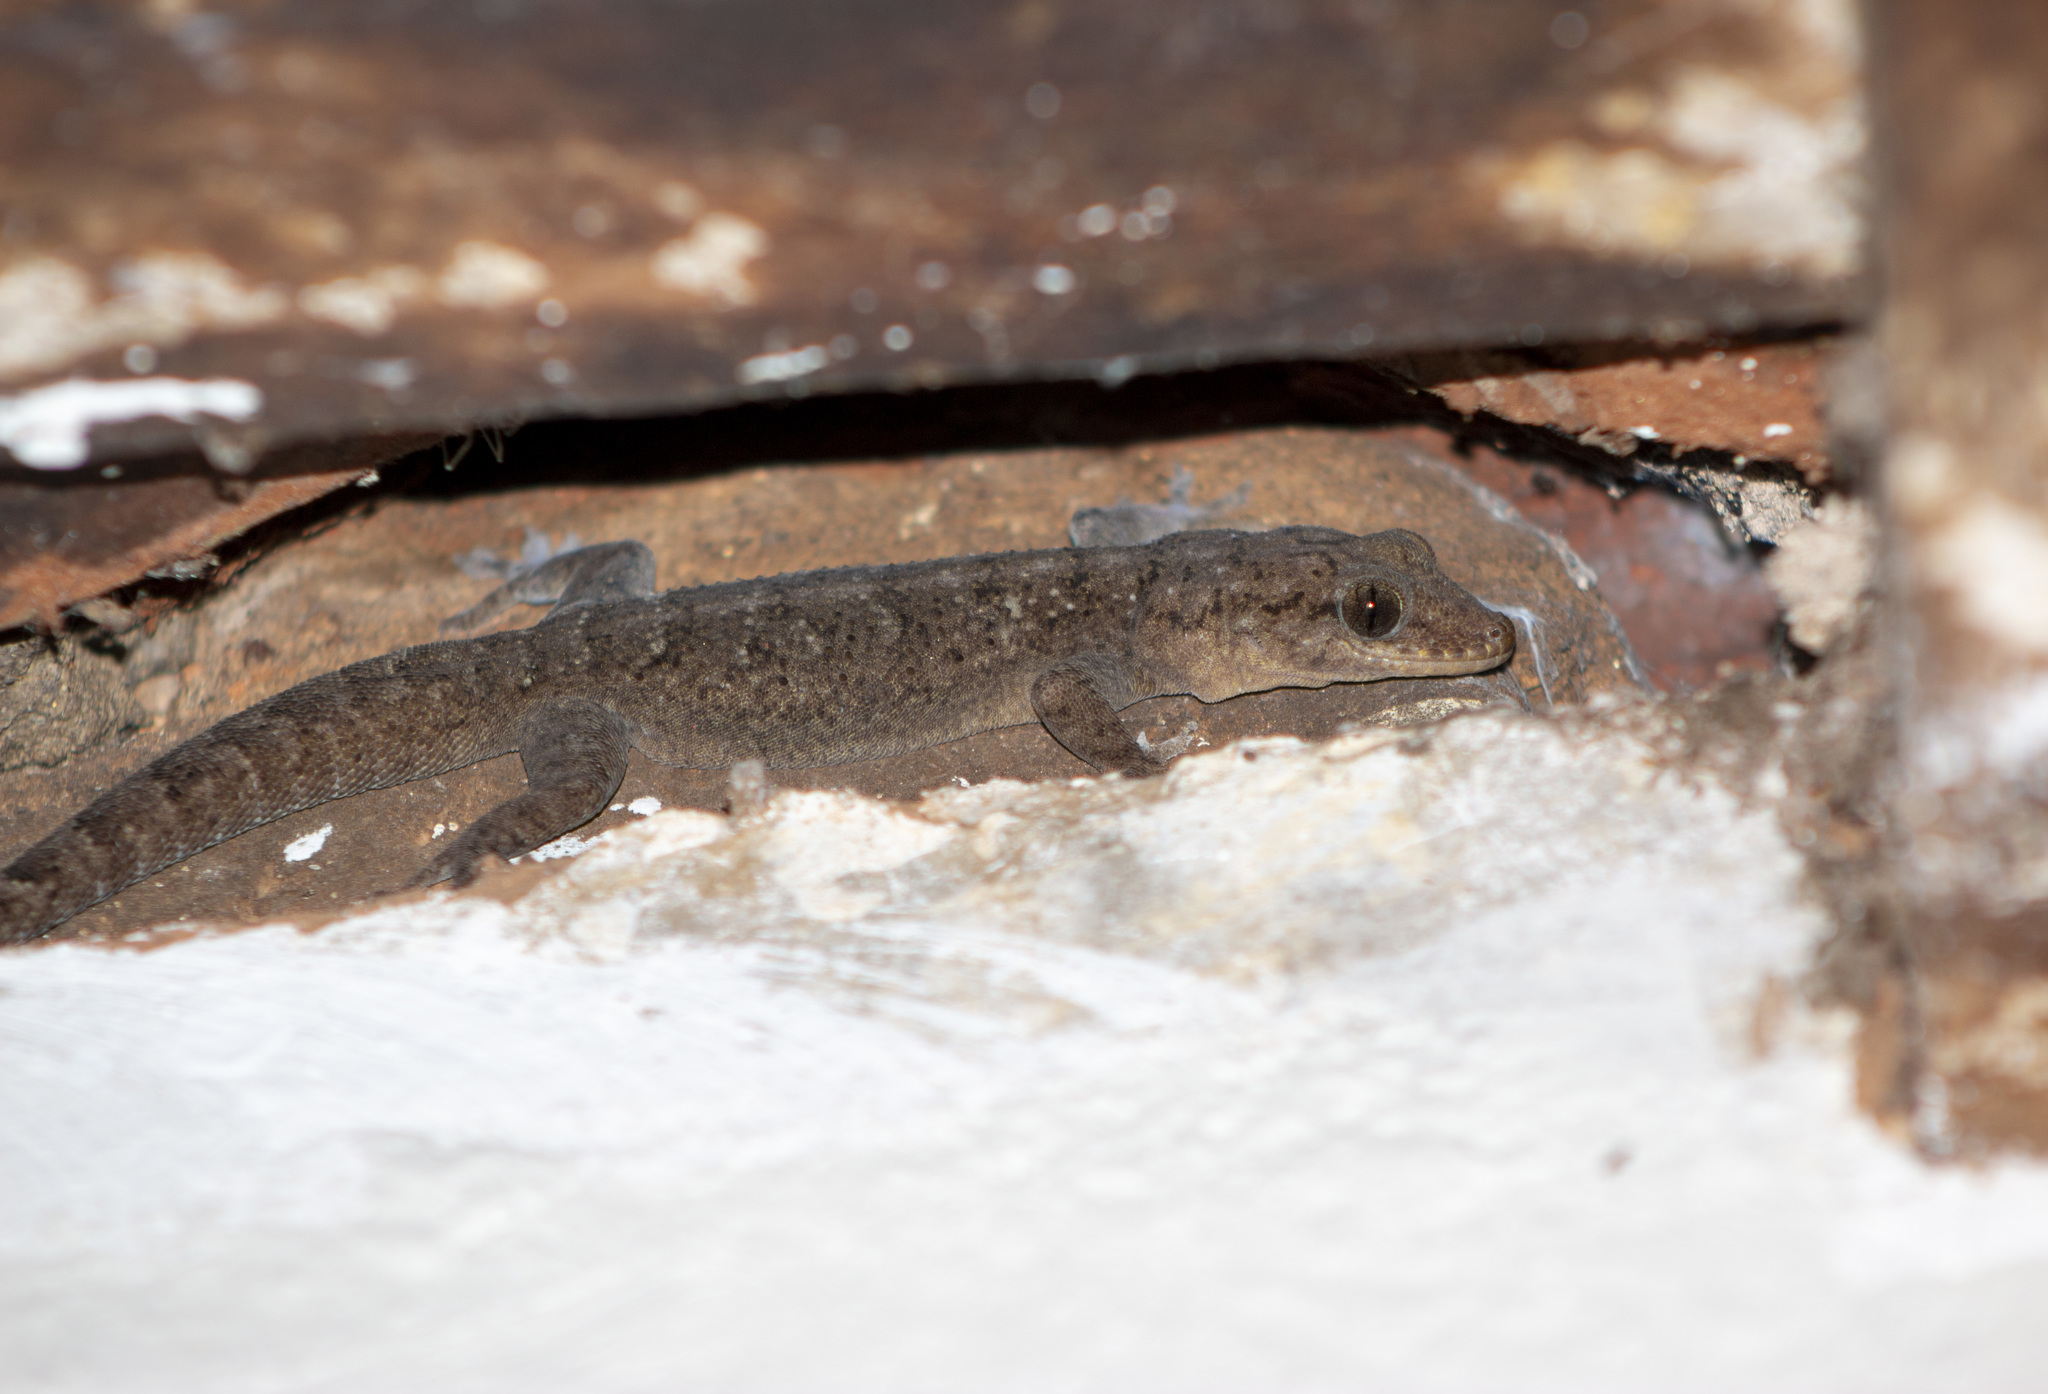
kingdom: Animalia
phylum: Chordata
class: Squamata
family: Phyllodactylidae
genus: Phyllopezus
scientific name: Phyllopezus pollicaris
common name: Brazilian gecko
